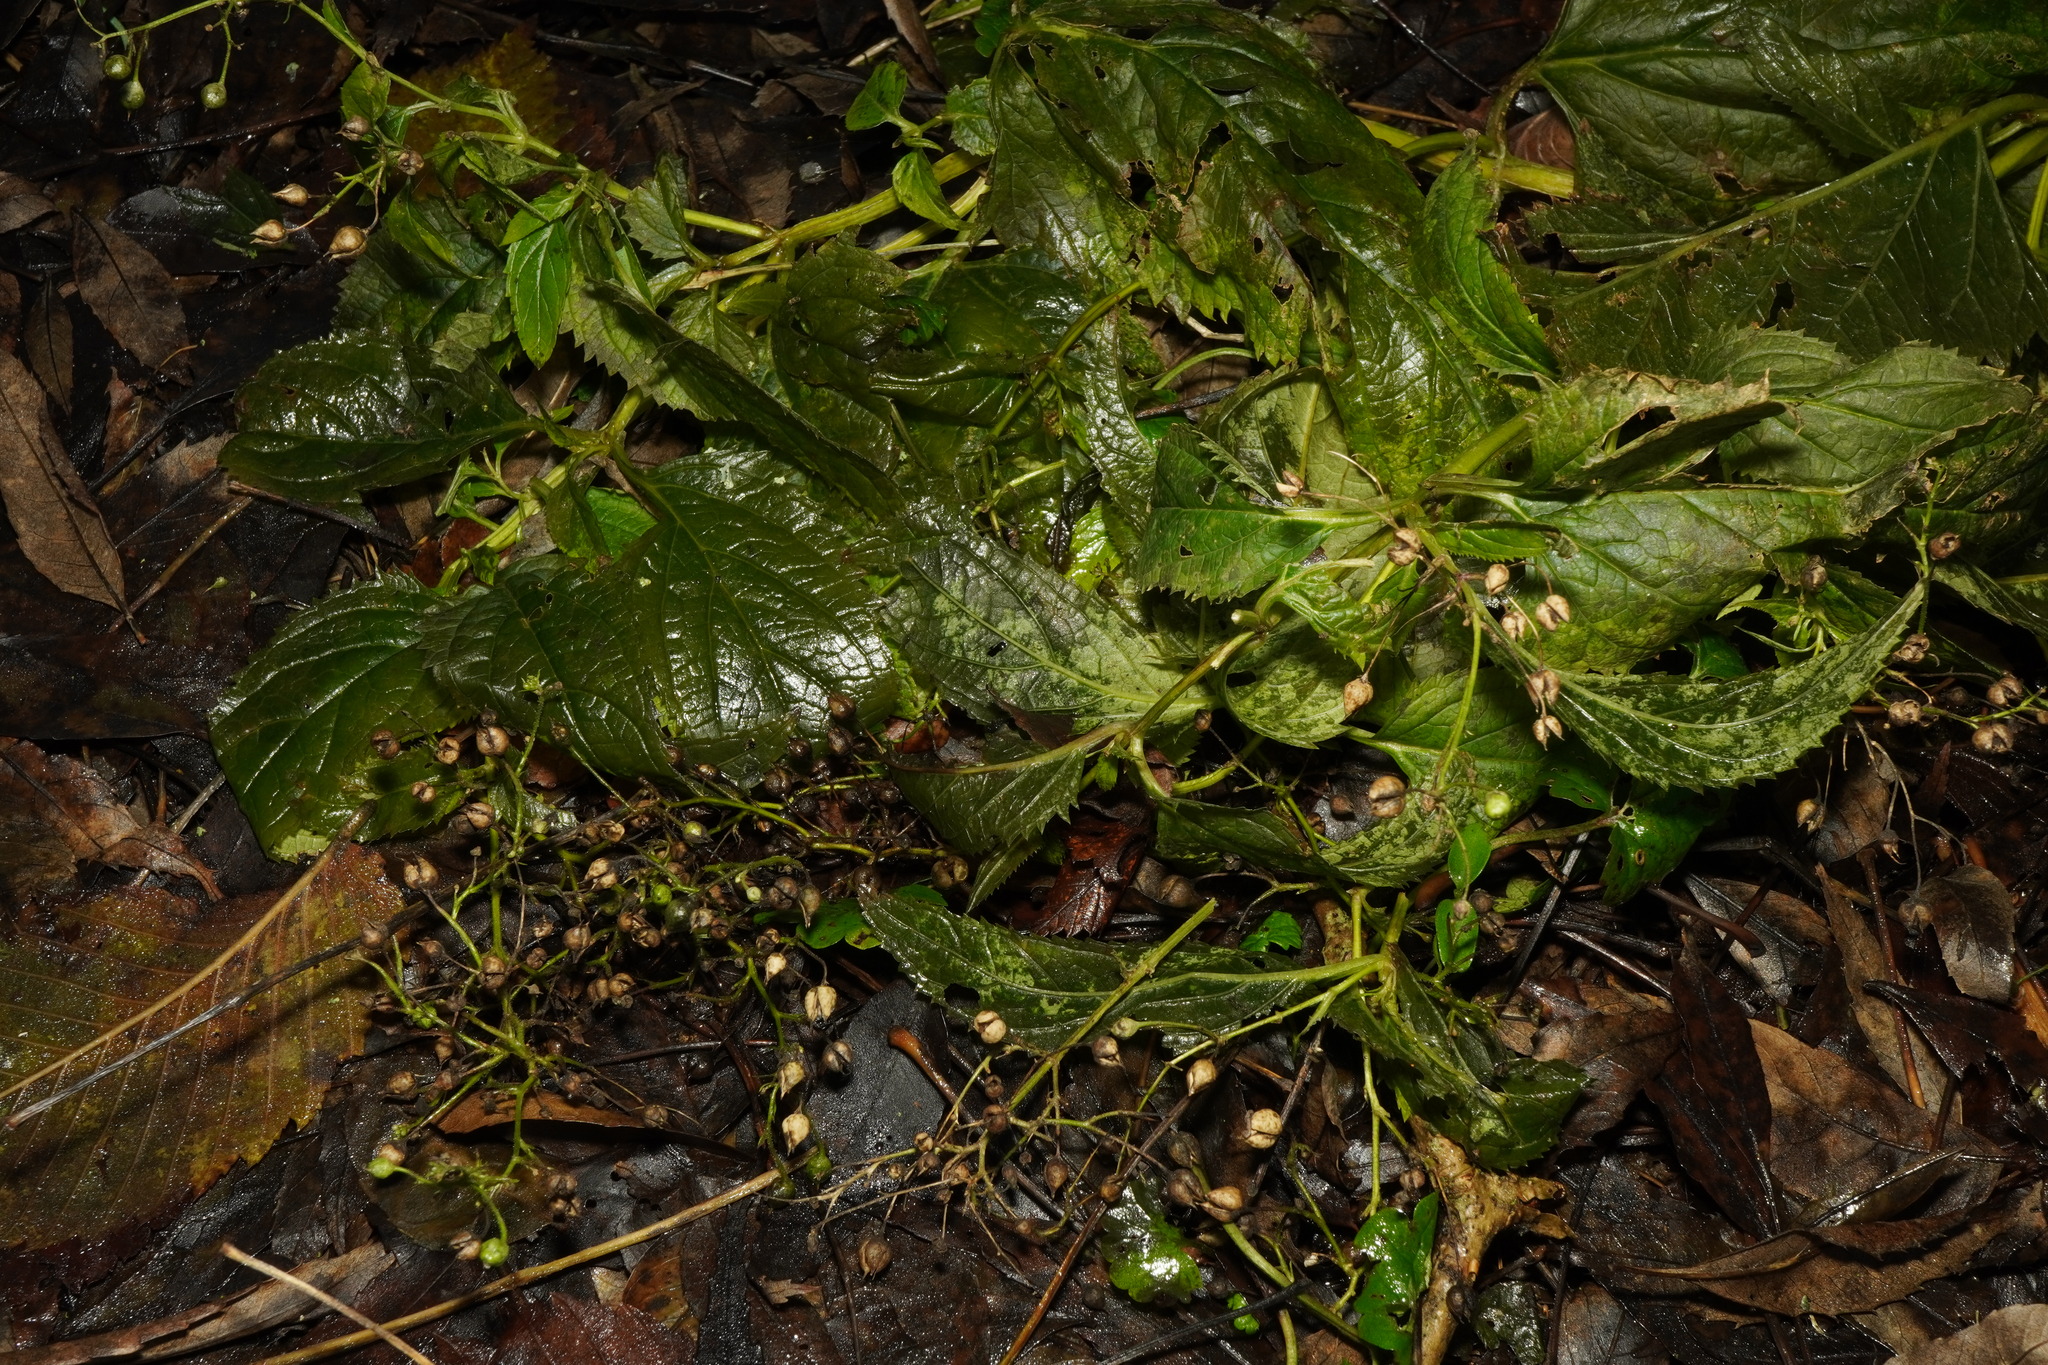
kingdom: Plantae
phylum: Tracheophyta
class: Magnoliopsida
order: Lamiales
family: Scrophulariaceae
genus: Scrophularia
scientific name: Scrophularia nodosa
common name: Common figwort
